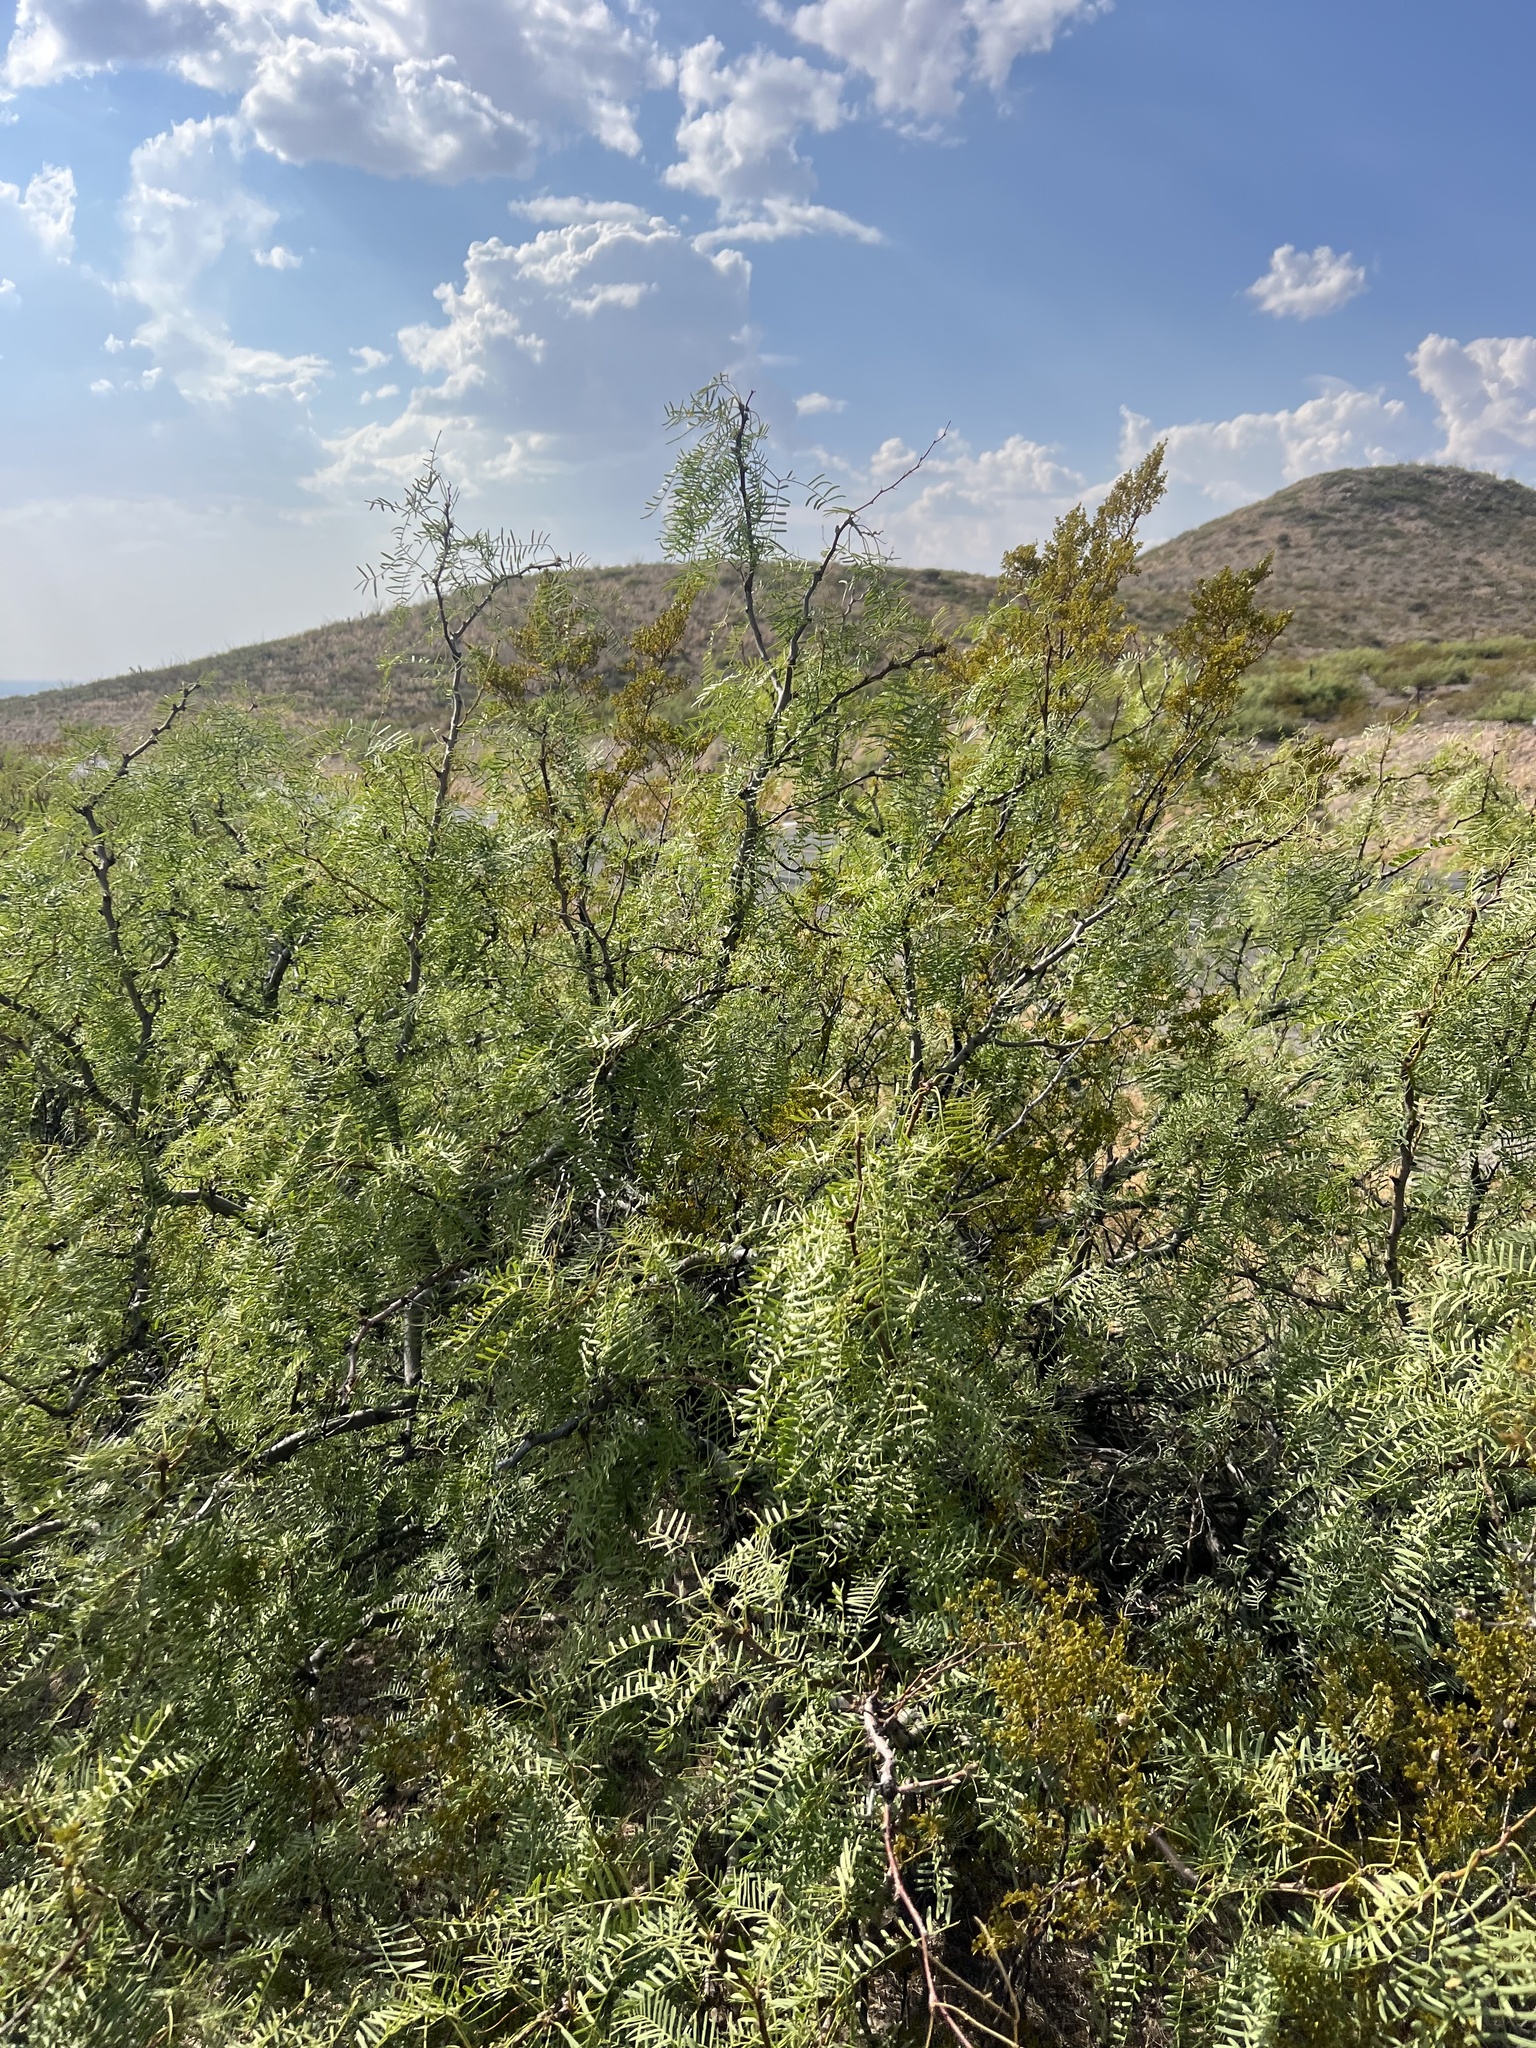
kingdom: Plantae
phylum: Tracheophyta
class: Magnoliopsida
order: Fabales
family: Fabaceae
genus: Prosopis
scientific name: Prosopis glandulosa
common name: Honey mesquite
